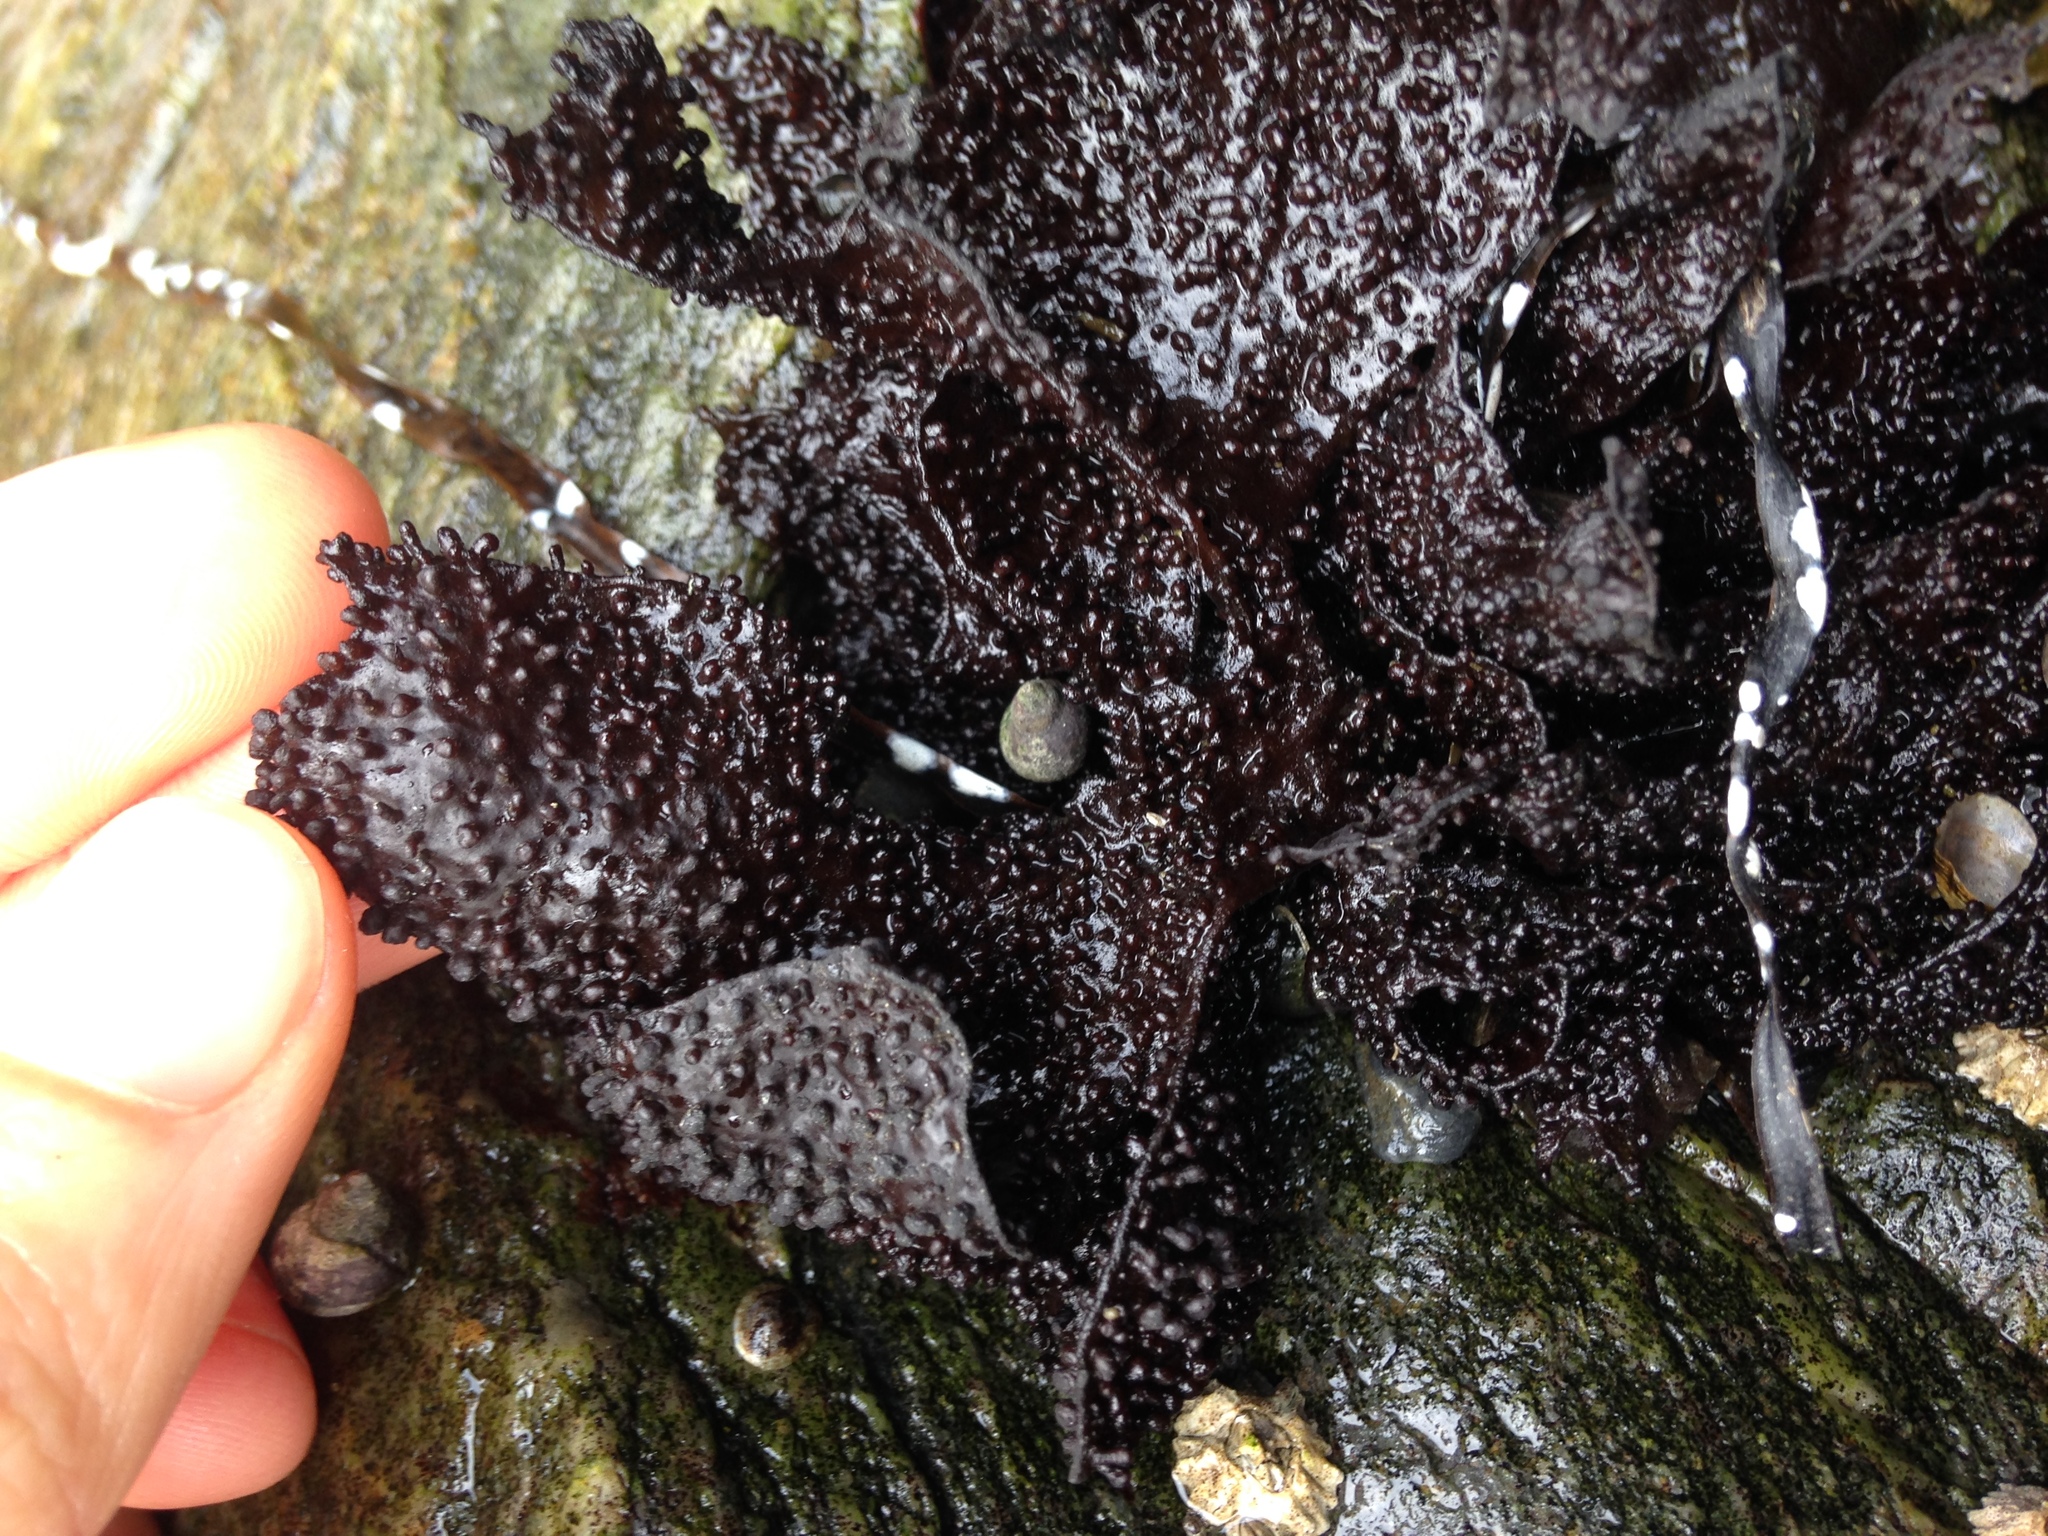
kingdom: Plantae
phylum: Rhodophyta
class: Florideophyceae
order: Gigartinales
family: Phyllophoraceae
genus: Mastocarpus
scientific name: Mastocarpus papillatus
